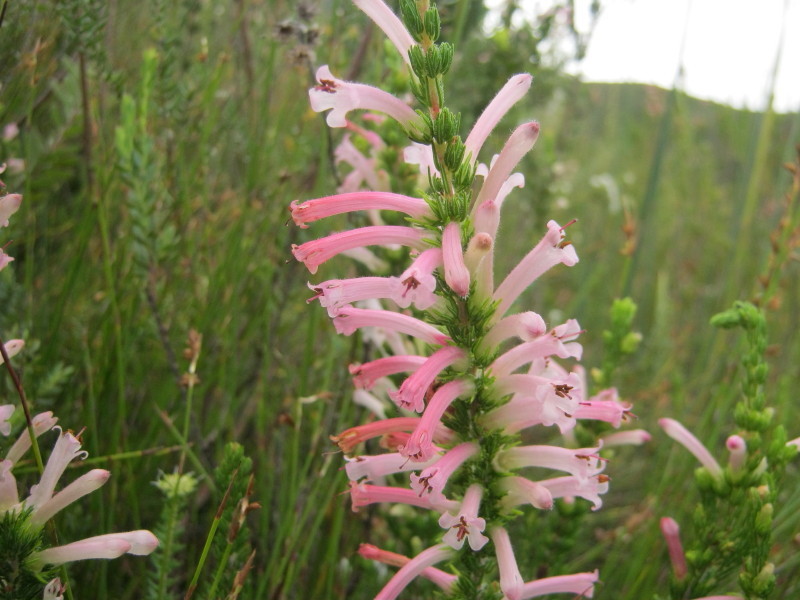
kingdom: Plantae
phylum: Tracheophyta
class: Magnoliopsida
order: Ericales
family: Ericaceae
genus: Erica
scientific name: Erica curviflora
